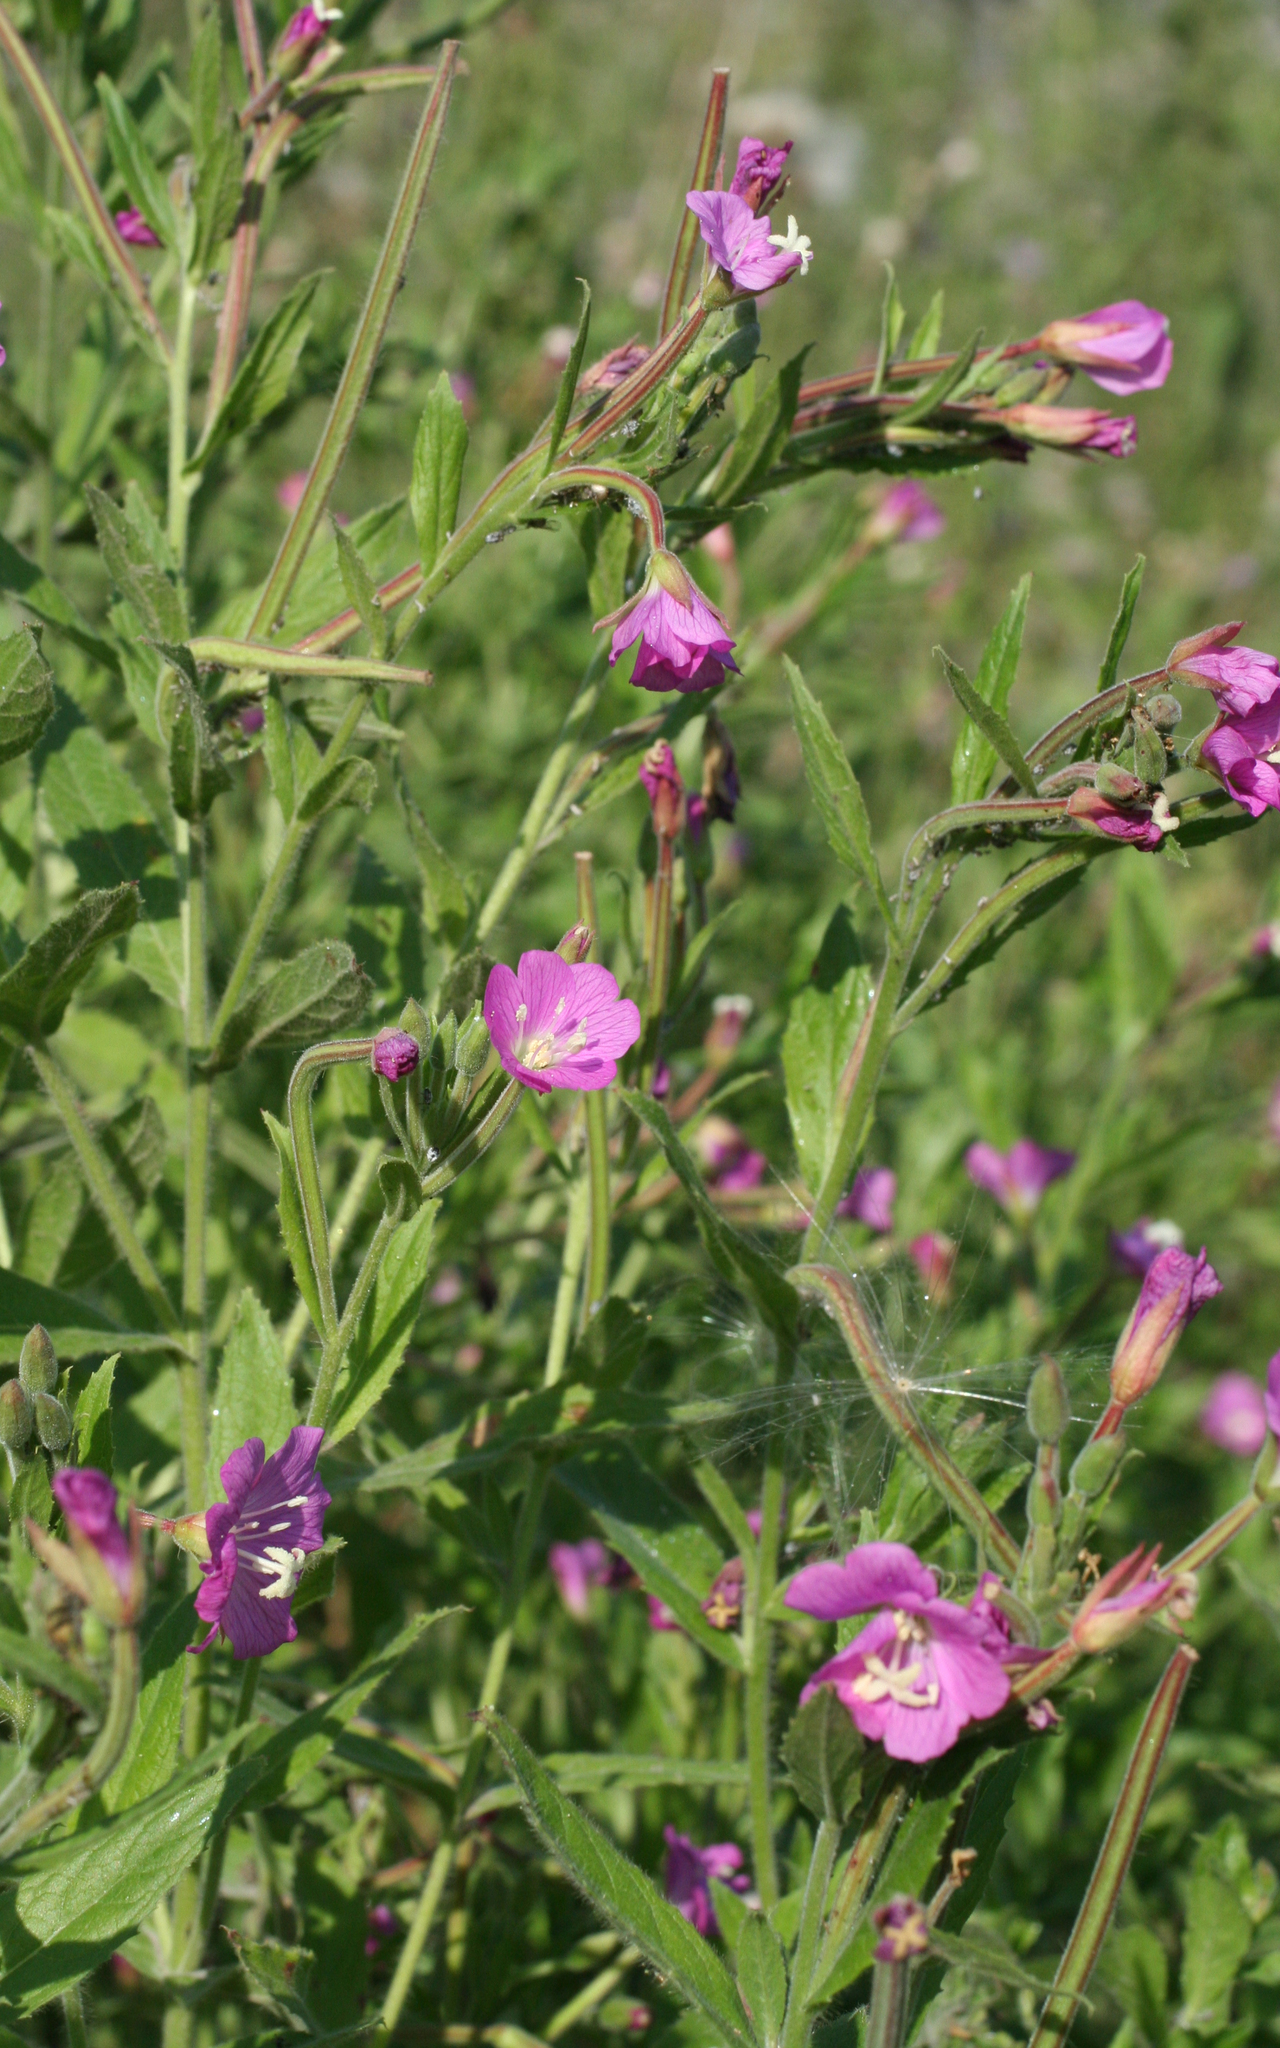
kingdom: Plantae
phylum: Tracheophyta
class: Magnoliopsida
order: Myrtales
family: Onagraceae
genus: Epilobium
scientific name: Epilobium hirsutum
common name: Great willowherb
